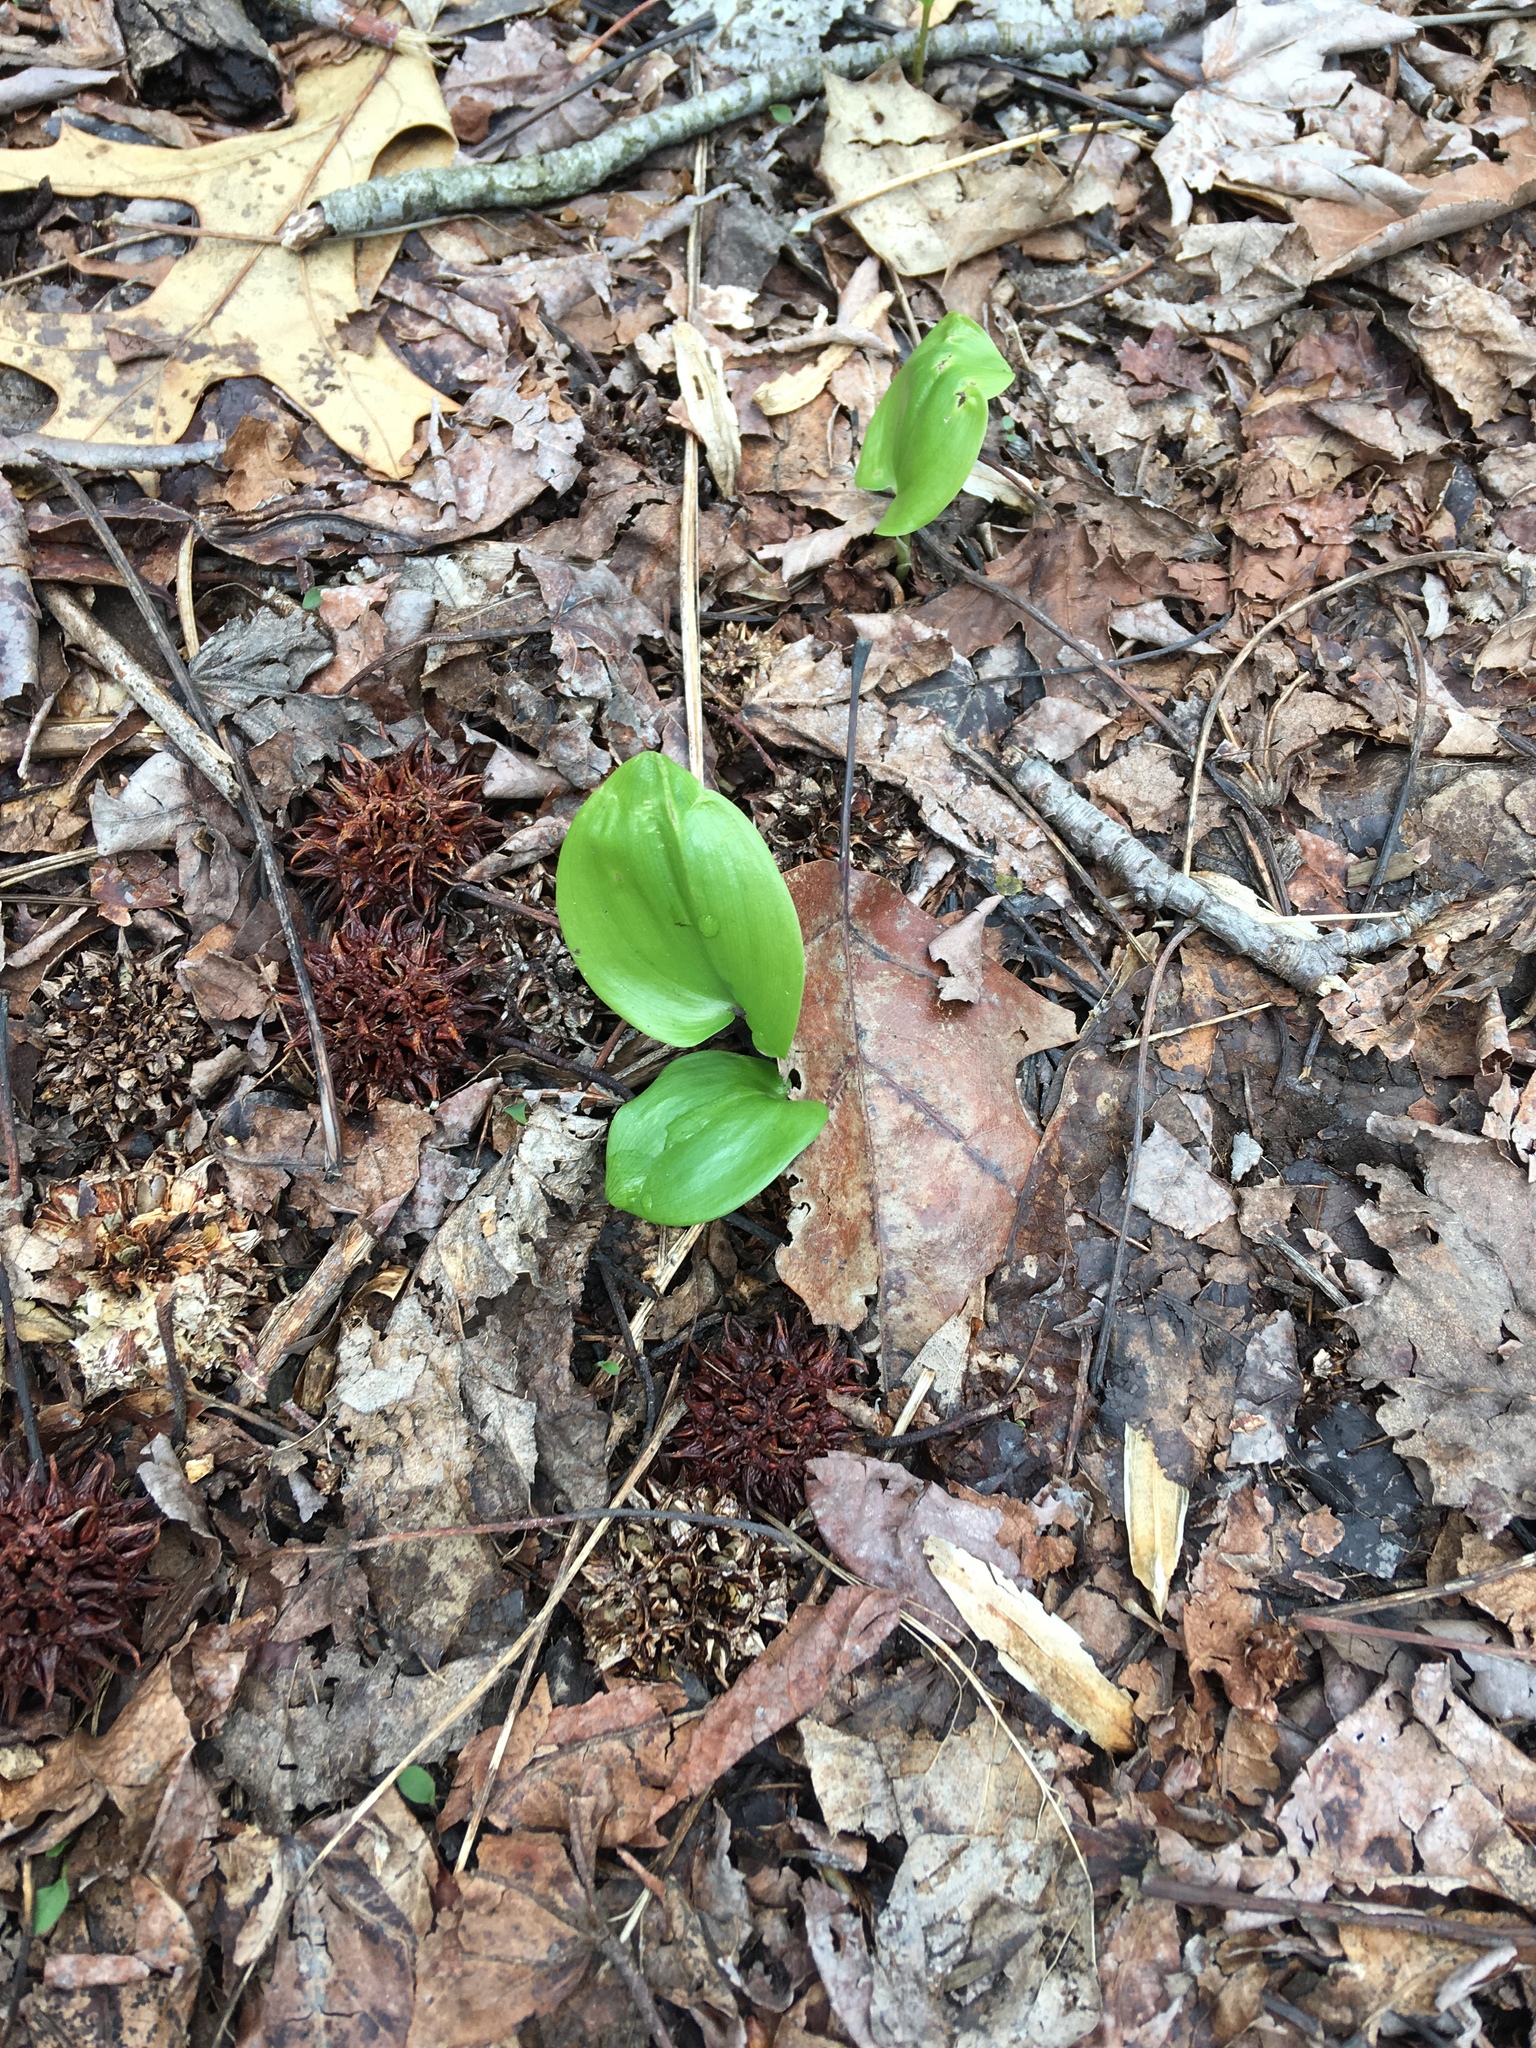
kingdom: Plantae
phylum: Tracheophyta
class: Liliopsida
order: Asparagales
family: Asparagaceae
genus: Maianthemum
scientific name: Maianthemum canadense
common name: False lily-of-the-valley
